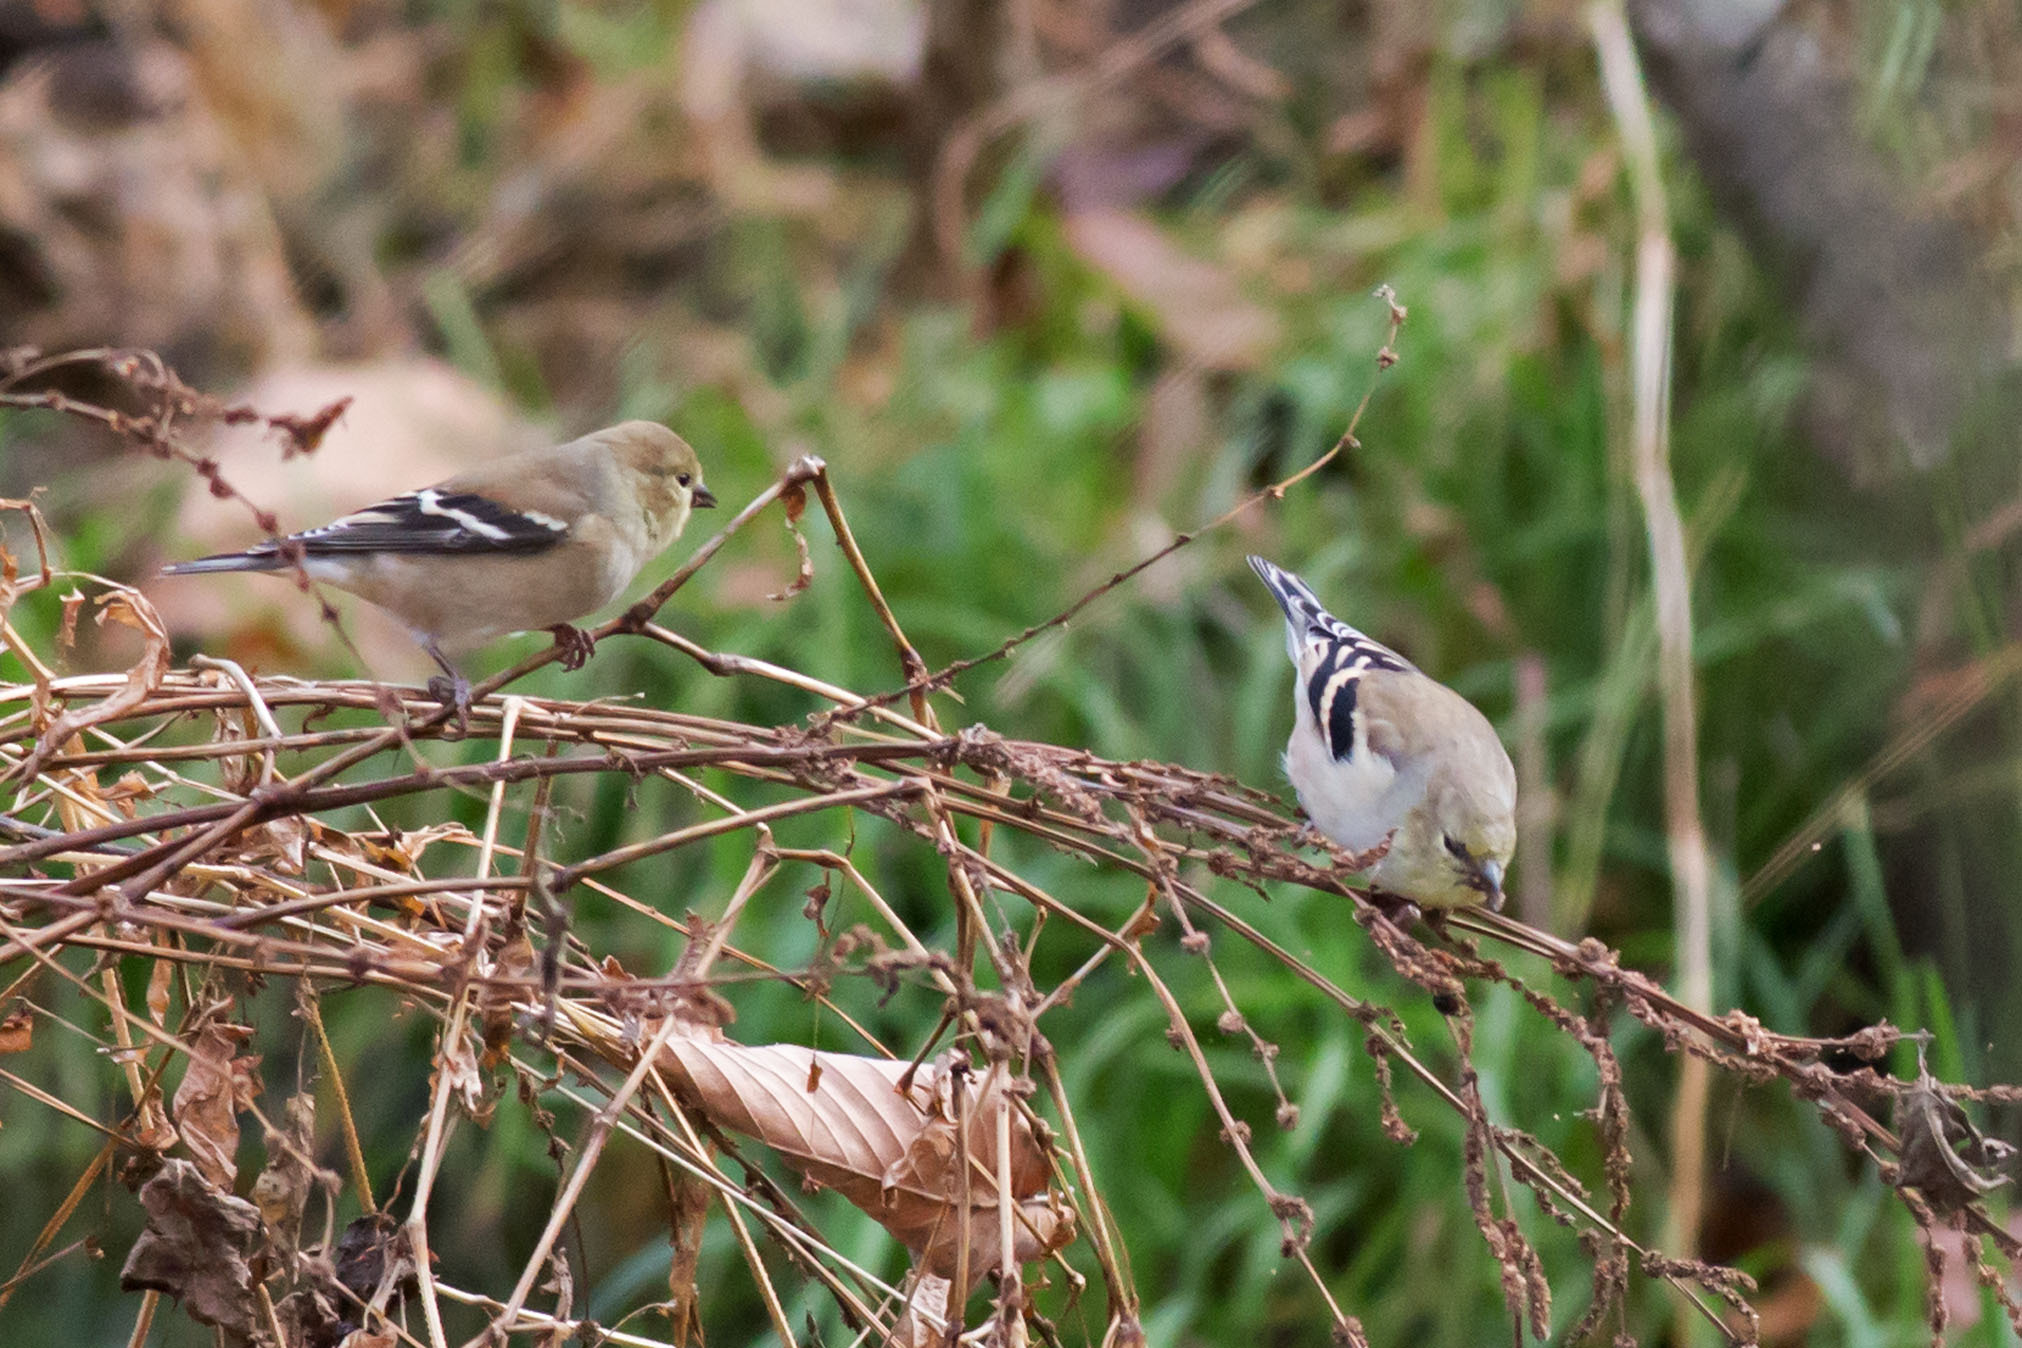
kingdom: Animalia
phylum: Chordata
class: Aves
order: Passeriformes
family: Fringillidae
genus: Spinus
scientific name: Spinus tristis
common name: American goldfinch
